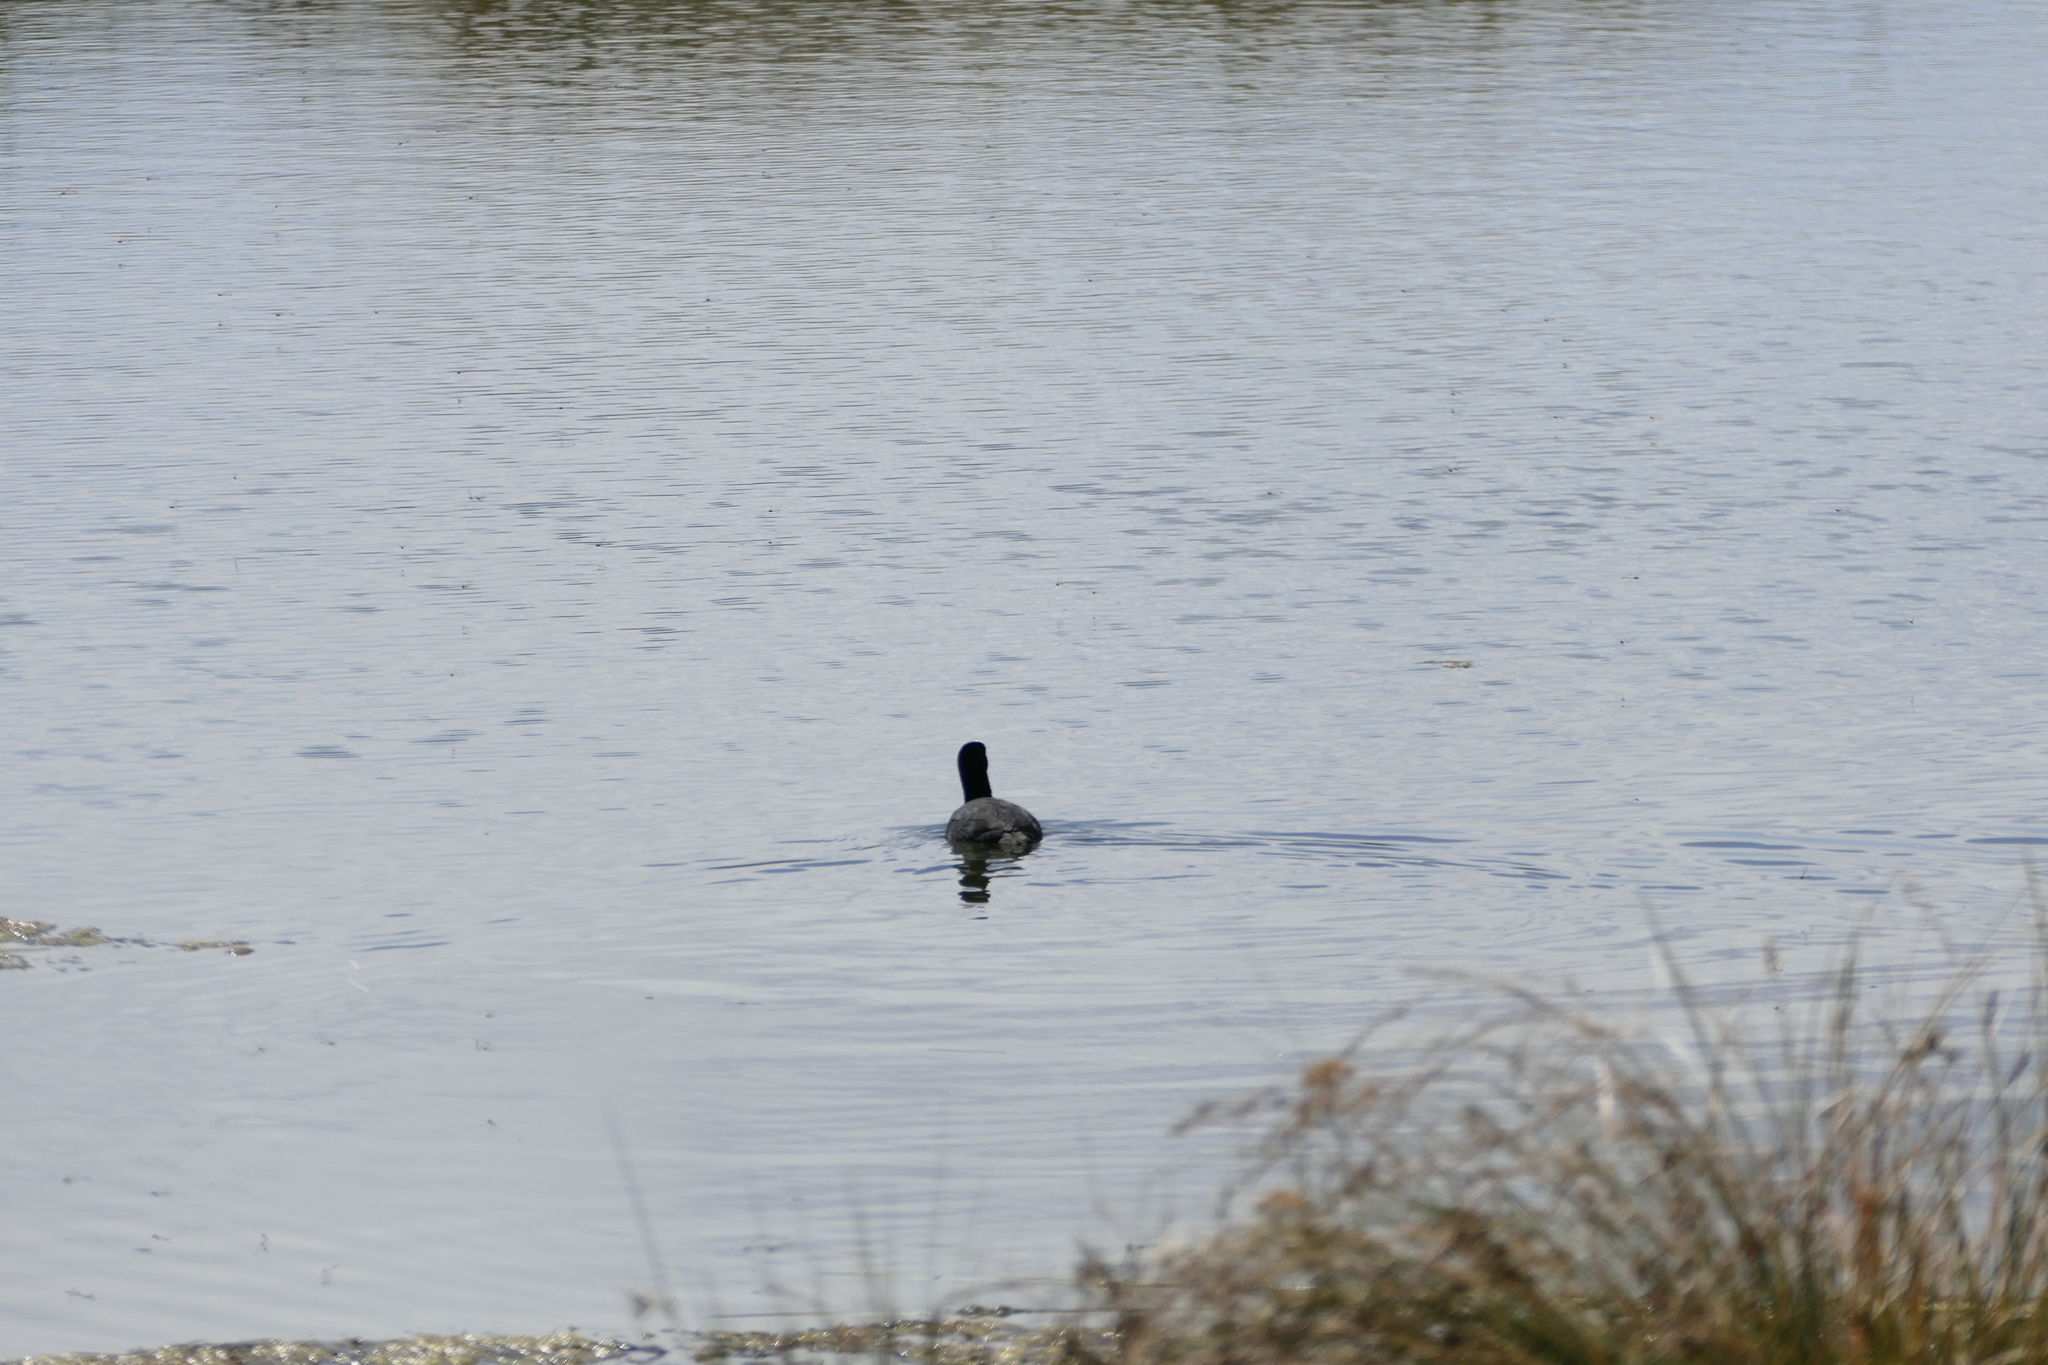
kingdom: Animalia
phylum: Chordata
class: Aves
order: Gruiformes
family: Rallidae
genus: Fulica
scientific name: Fulica atra
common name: Eurasian coot
